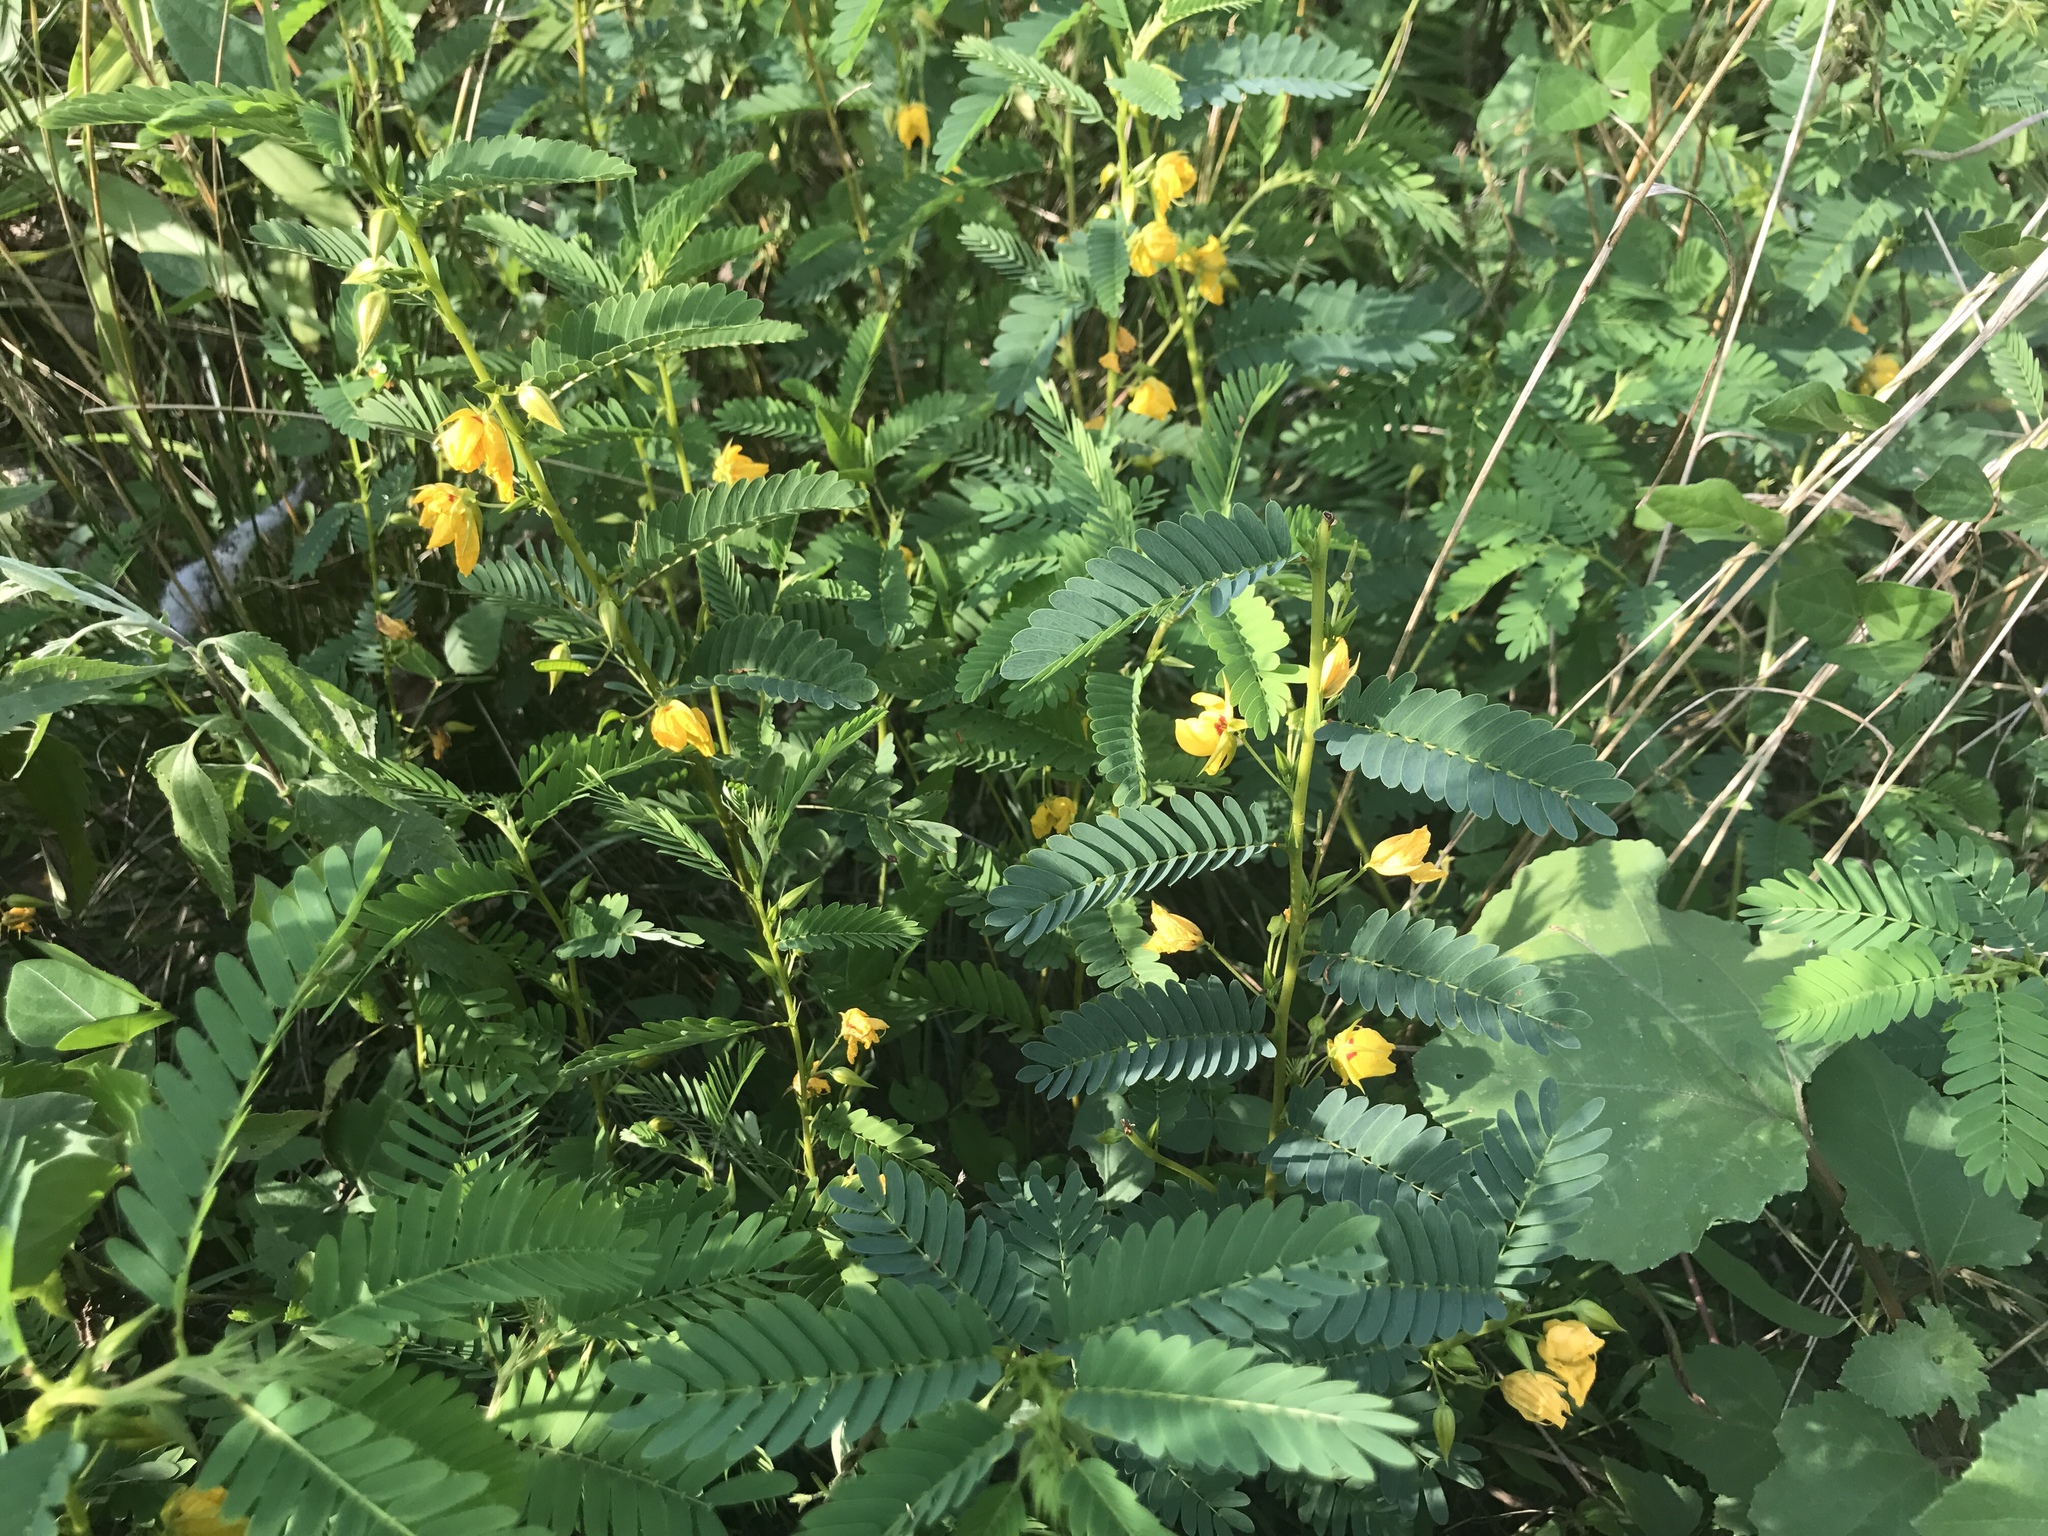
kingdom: Plantae
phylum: Tracheophyta
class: Magnoliopsida
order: Fabales
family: Fabaceae
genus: Chamaecrista
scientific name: Chamaecrista fasciculata
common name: Golden cassia
